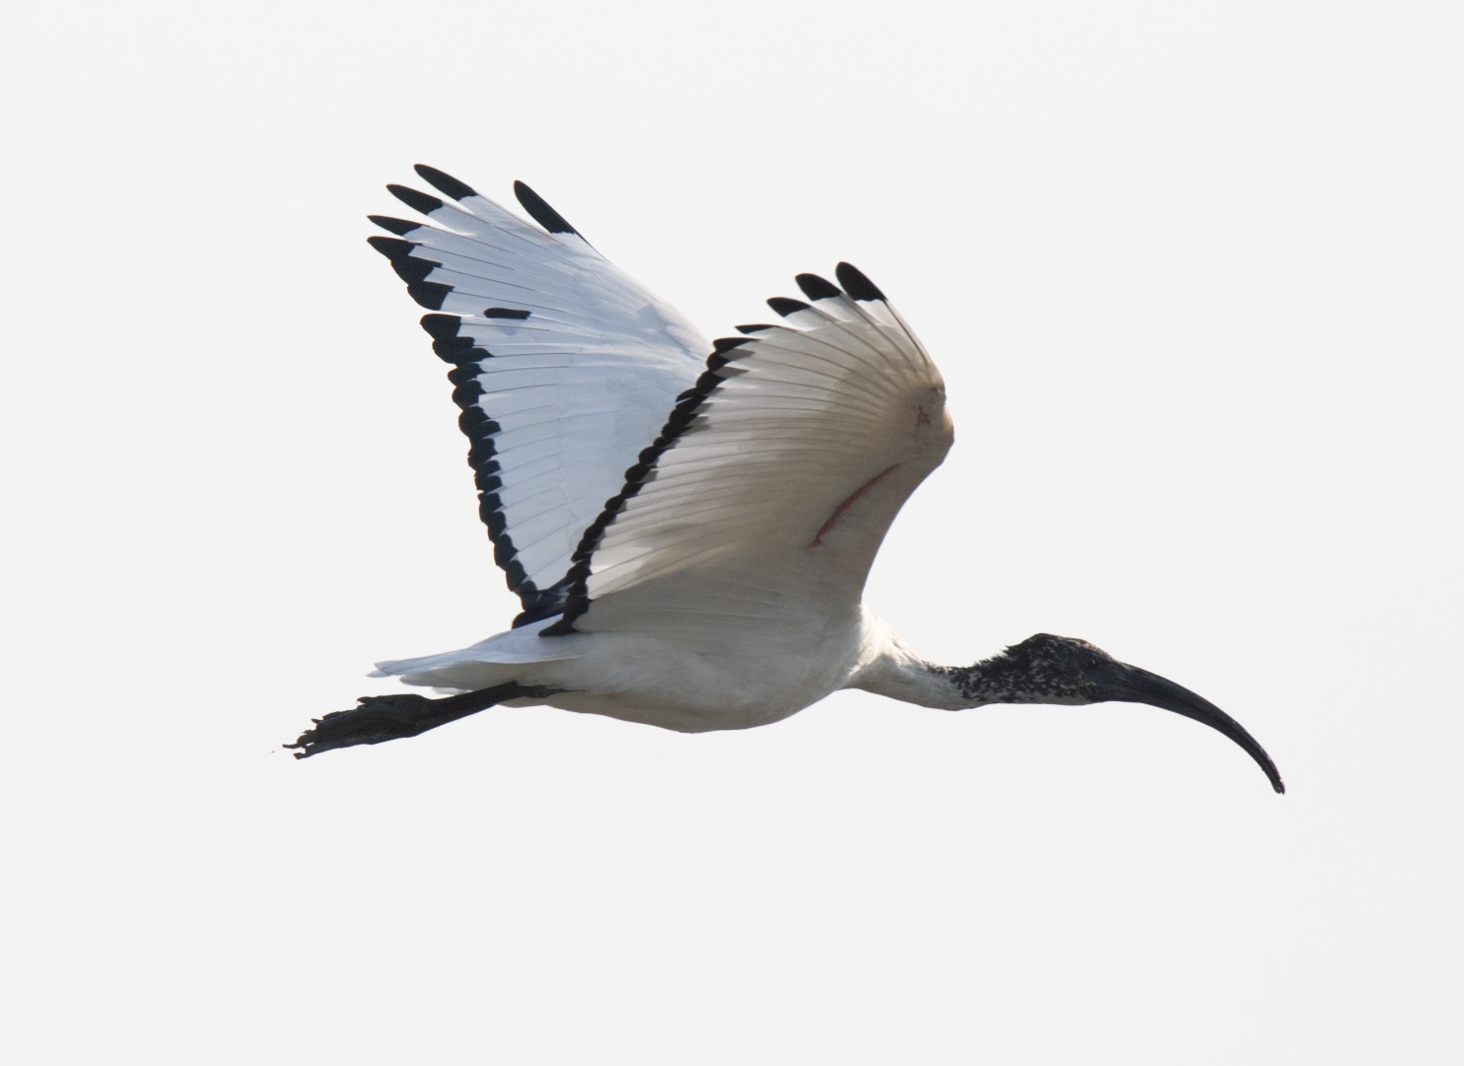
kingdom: Animalia
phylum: Chordata
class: Aves
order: Pelecaniformes
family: Threskiornithidae
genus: Threskiornis
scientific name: Threskiornis aethiopicus
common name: Sacred ibis
